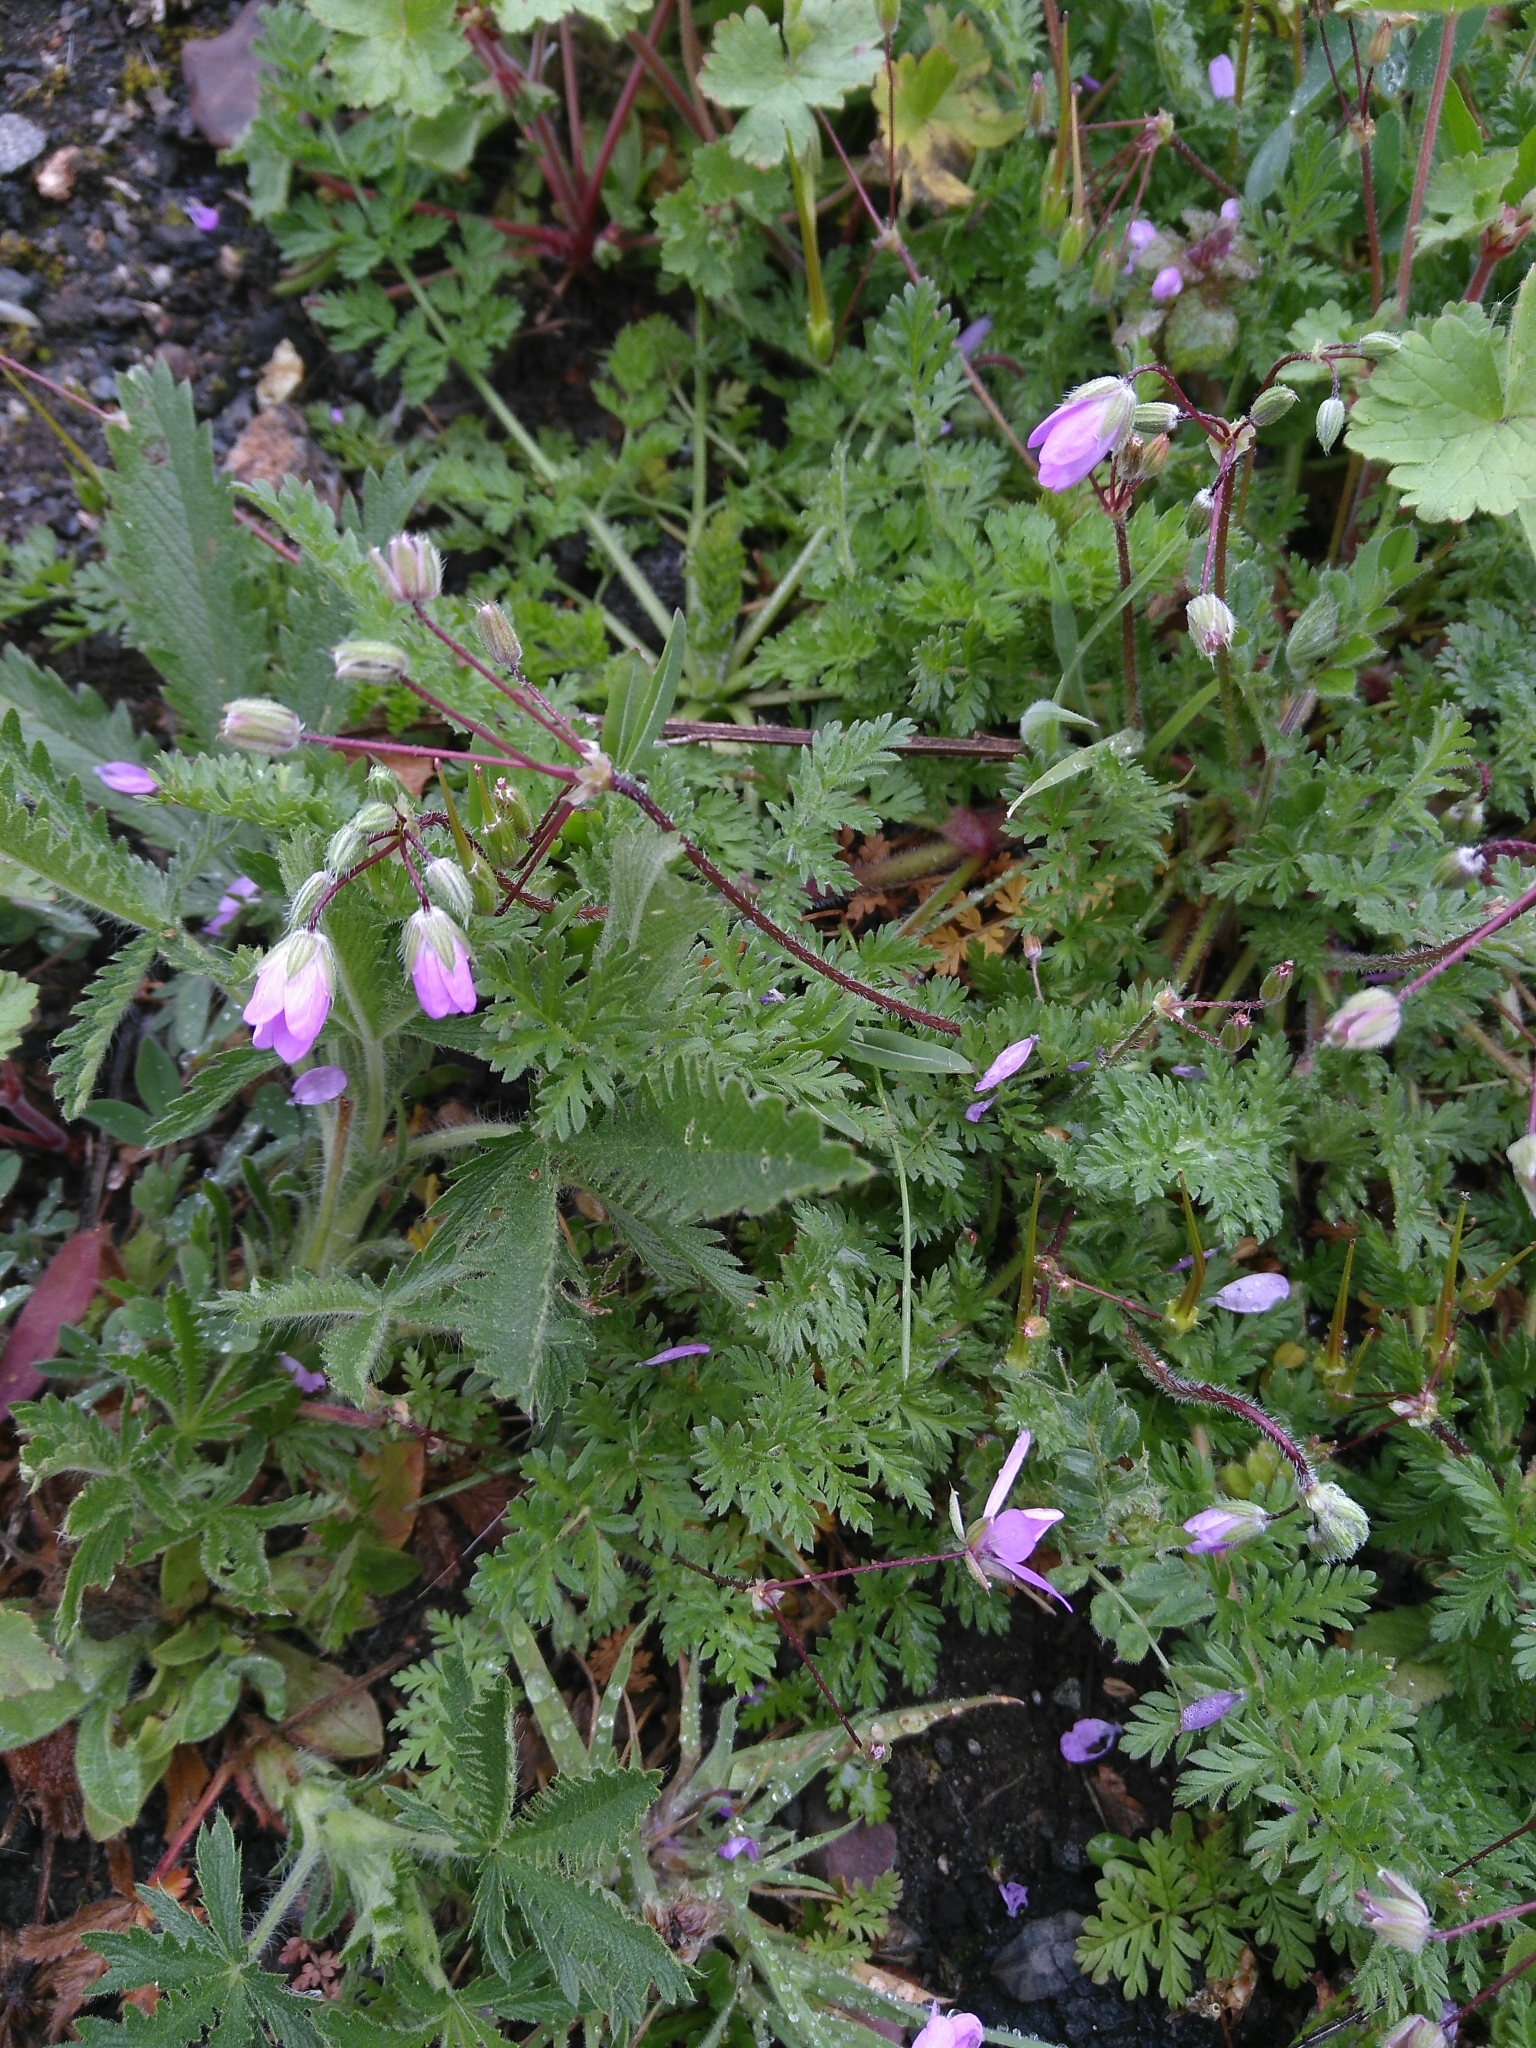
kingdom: Plantae
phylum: Tracheophyta
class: Magnoliopsida
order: Geraniales
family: Geraniaceae
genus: Erodium
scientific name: Erodium cicutarium
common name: Common stork's-bill
